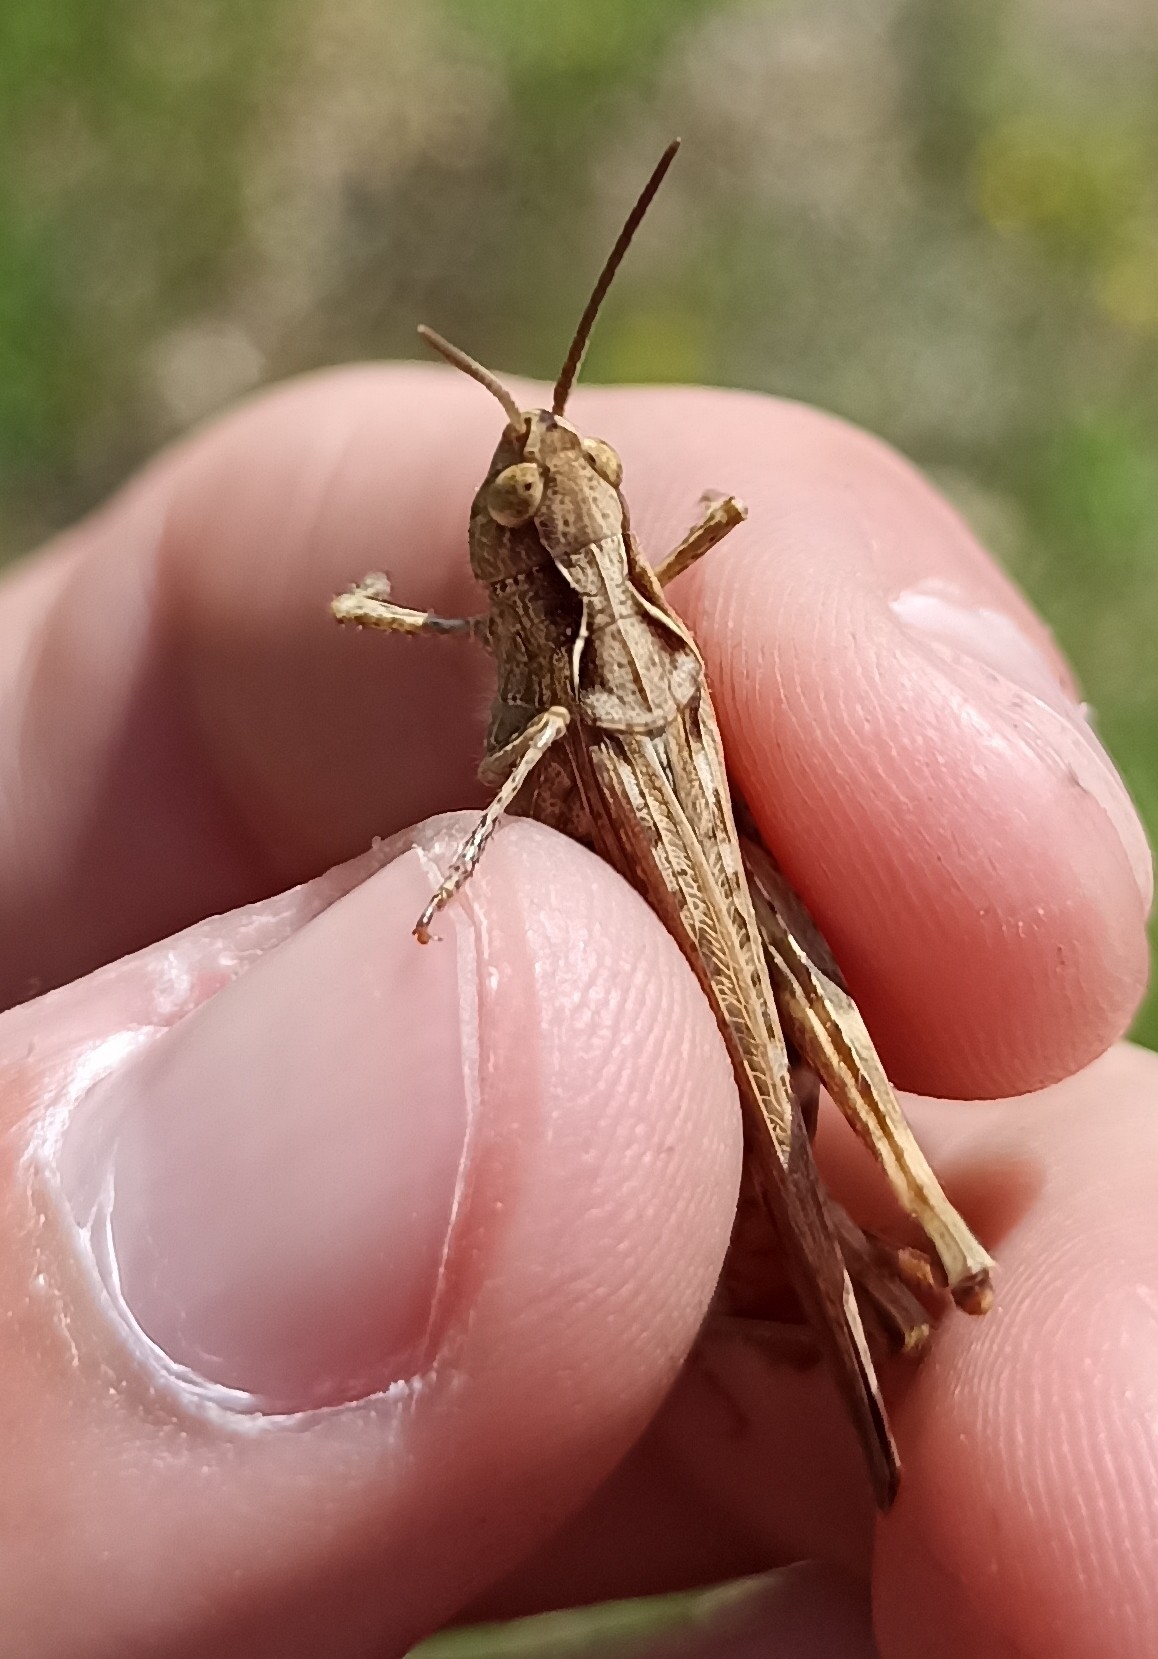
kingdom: Animalia
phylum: Arthropoda
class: Insecta
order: Orthoptera
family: Acrididae
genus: Chorthippus
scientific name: Chorthippus brunneus
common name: Field grasshopper
